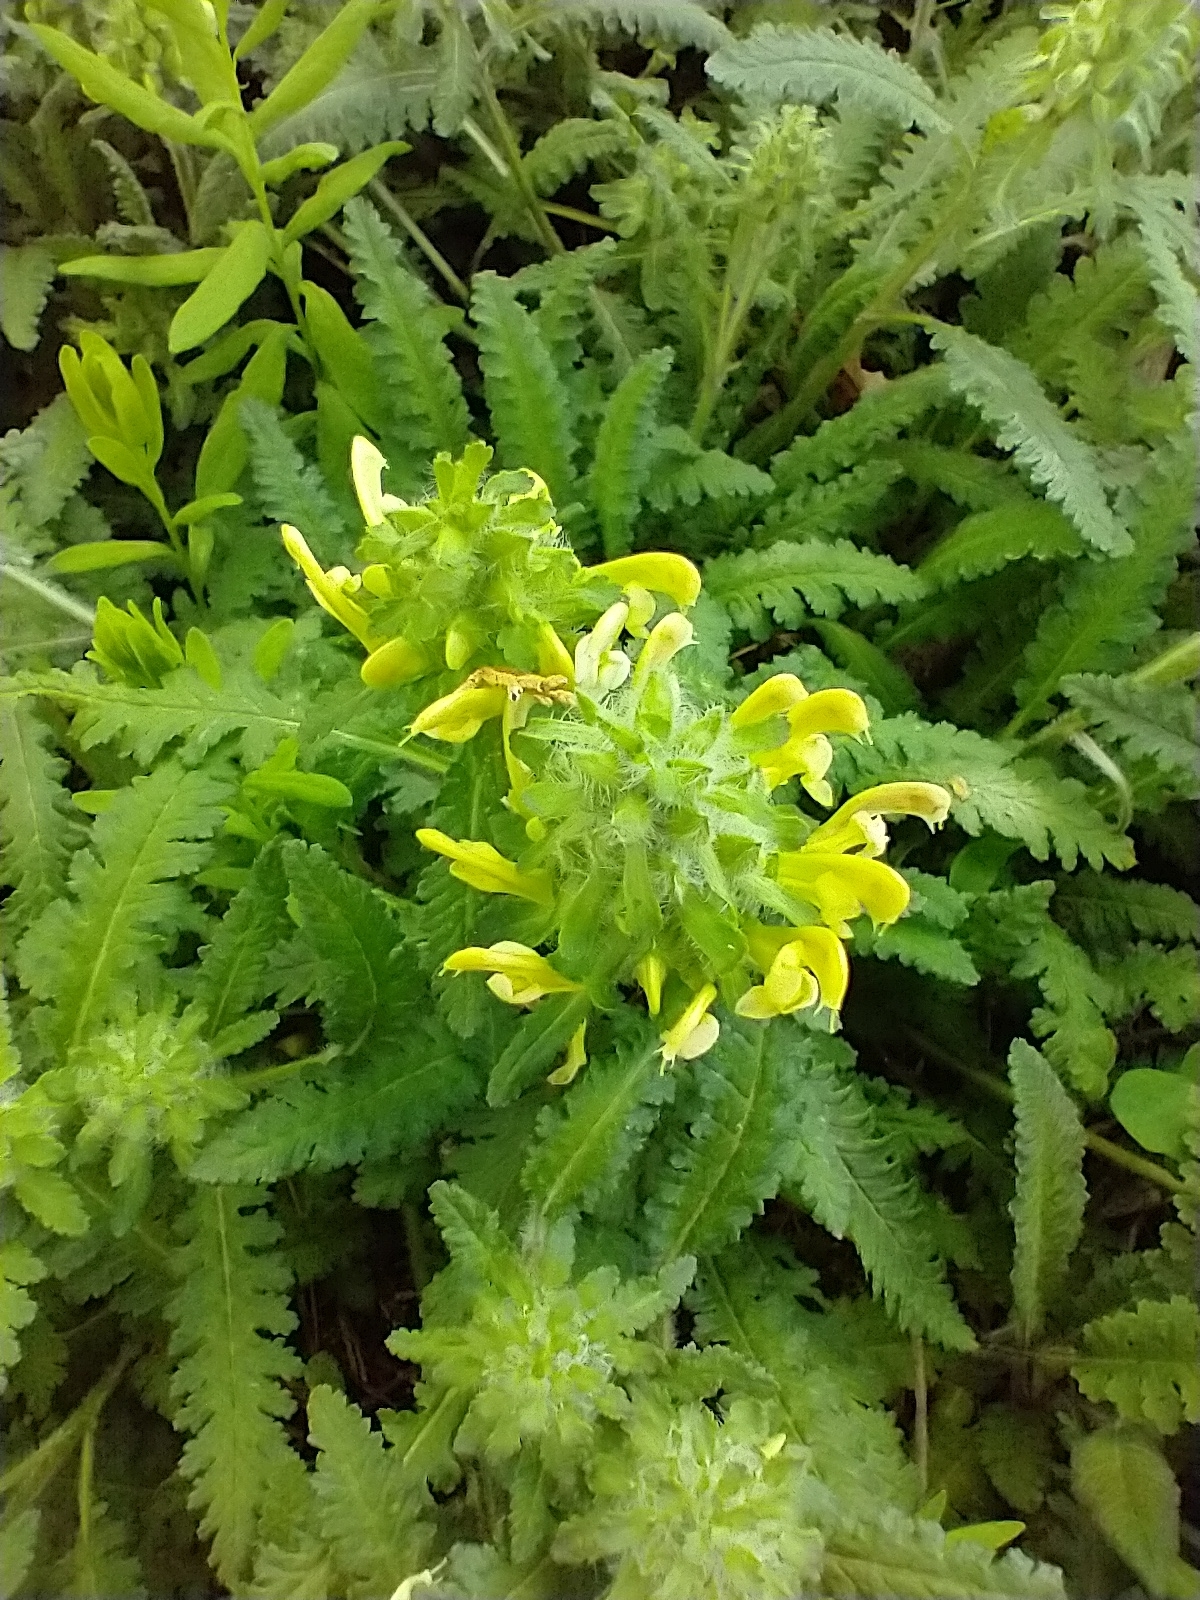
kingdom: Plantae
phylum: Tracheophyta
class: Magnoliopsida
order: Lamiales
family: Orobanchaceae
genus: Pedicularis
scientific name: Pedicularis canadensis
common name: Early lousewort
